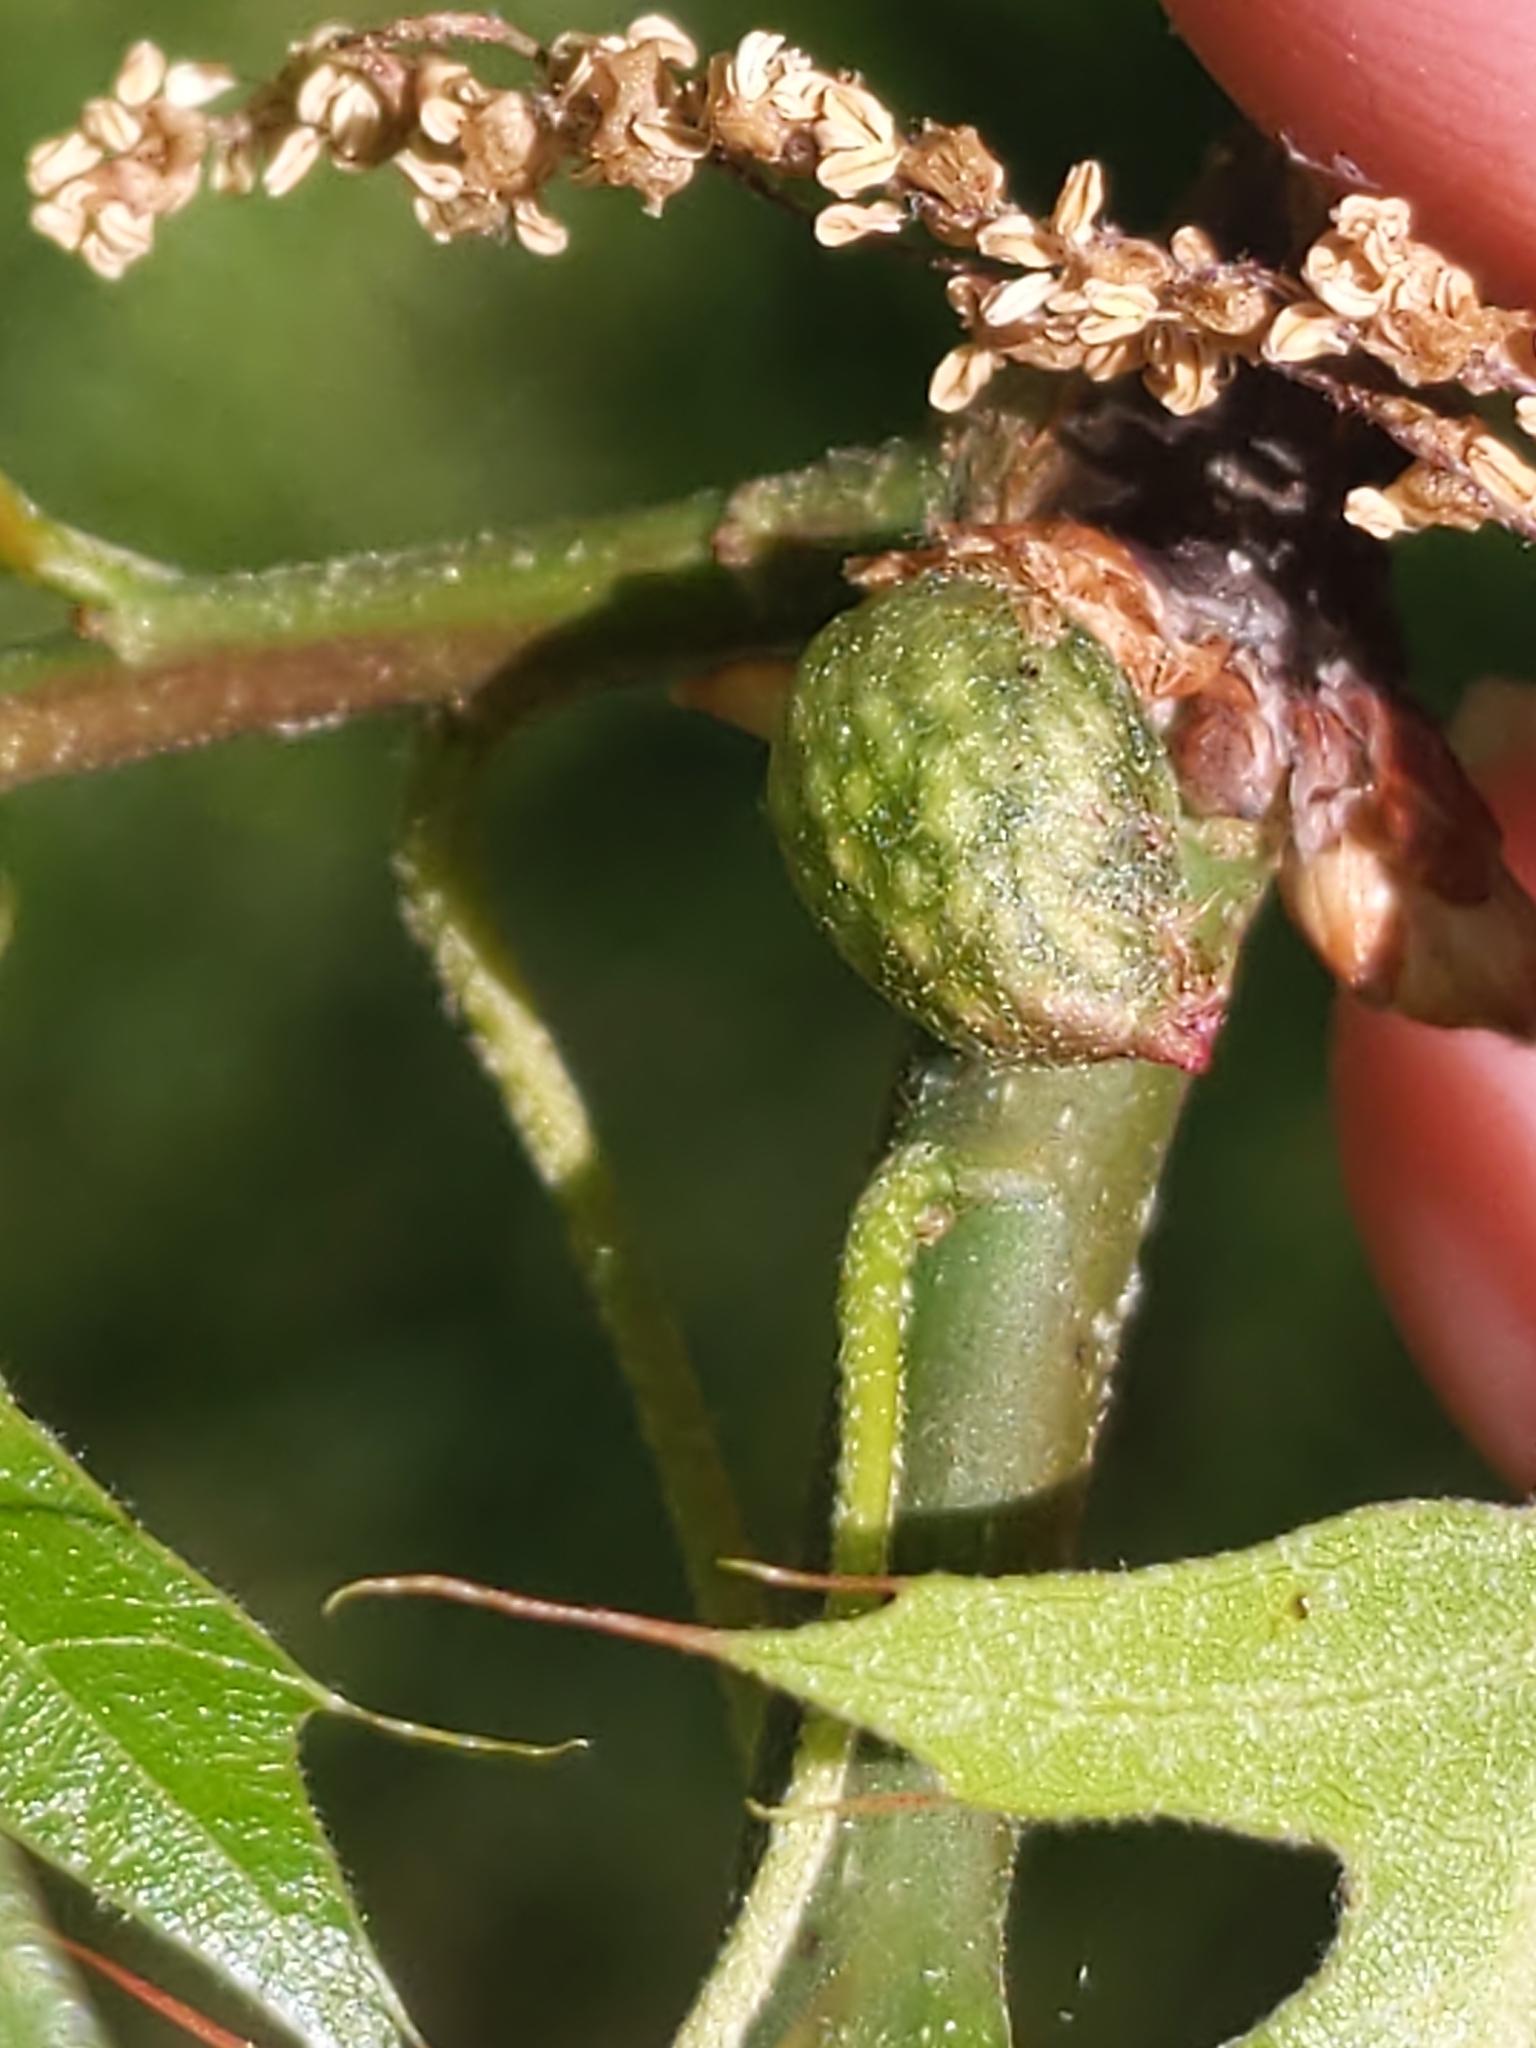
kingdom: Animalia
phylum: Arthropoda
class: Insecta
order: Hymenoptera
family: Cynipidae
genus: Dryocosmus
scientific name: Dryocosmus quercuspalustris
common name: Succulent oak gall wasp
